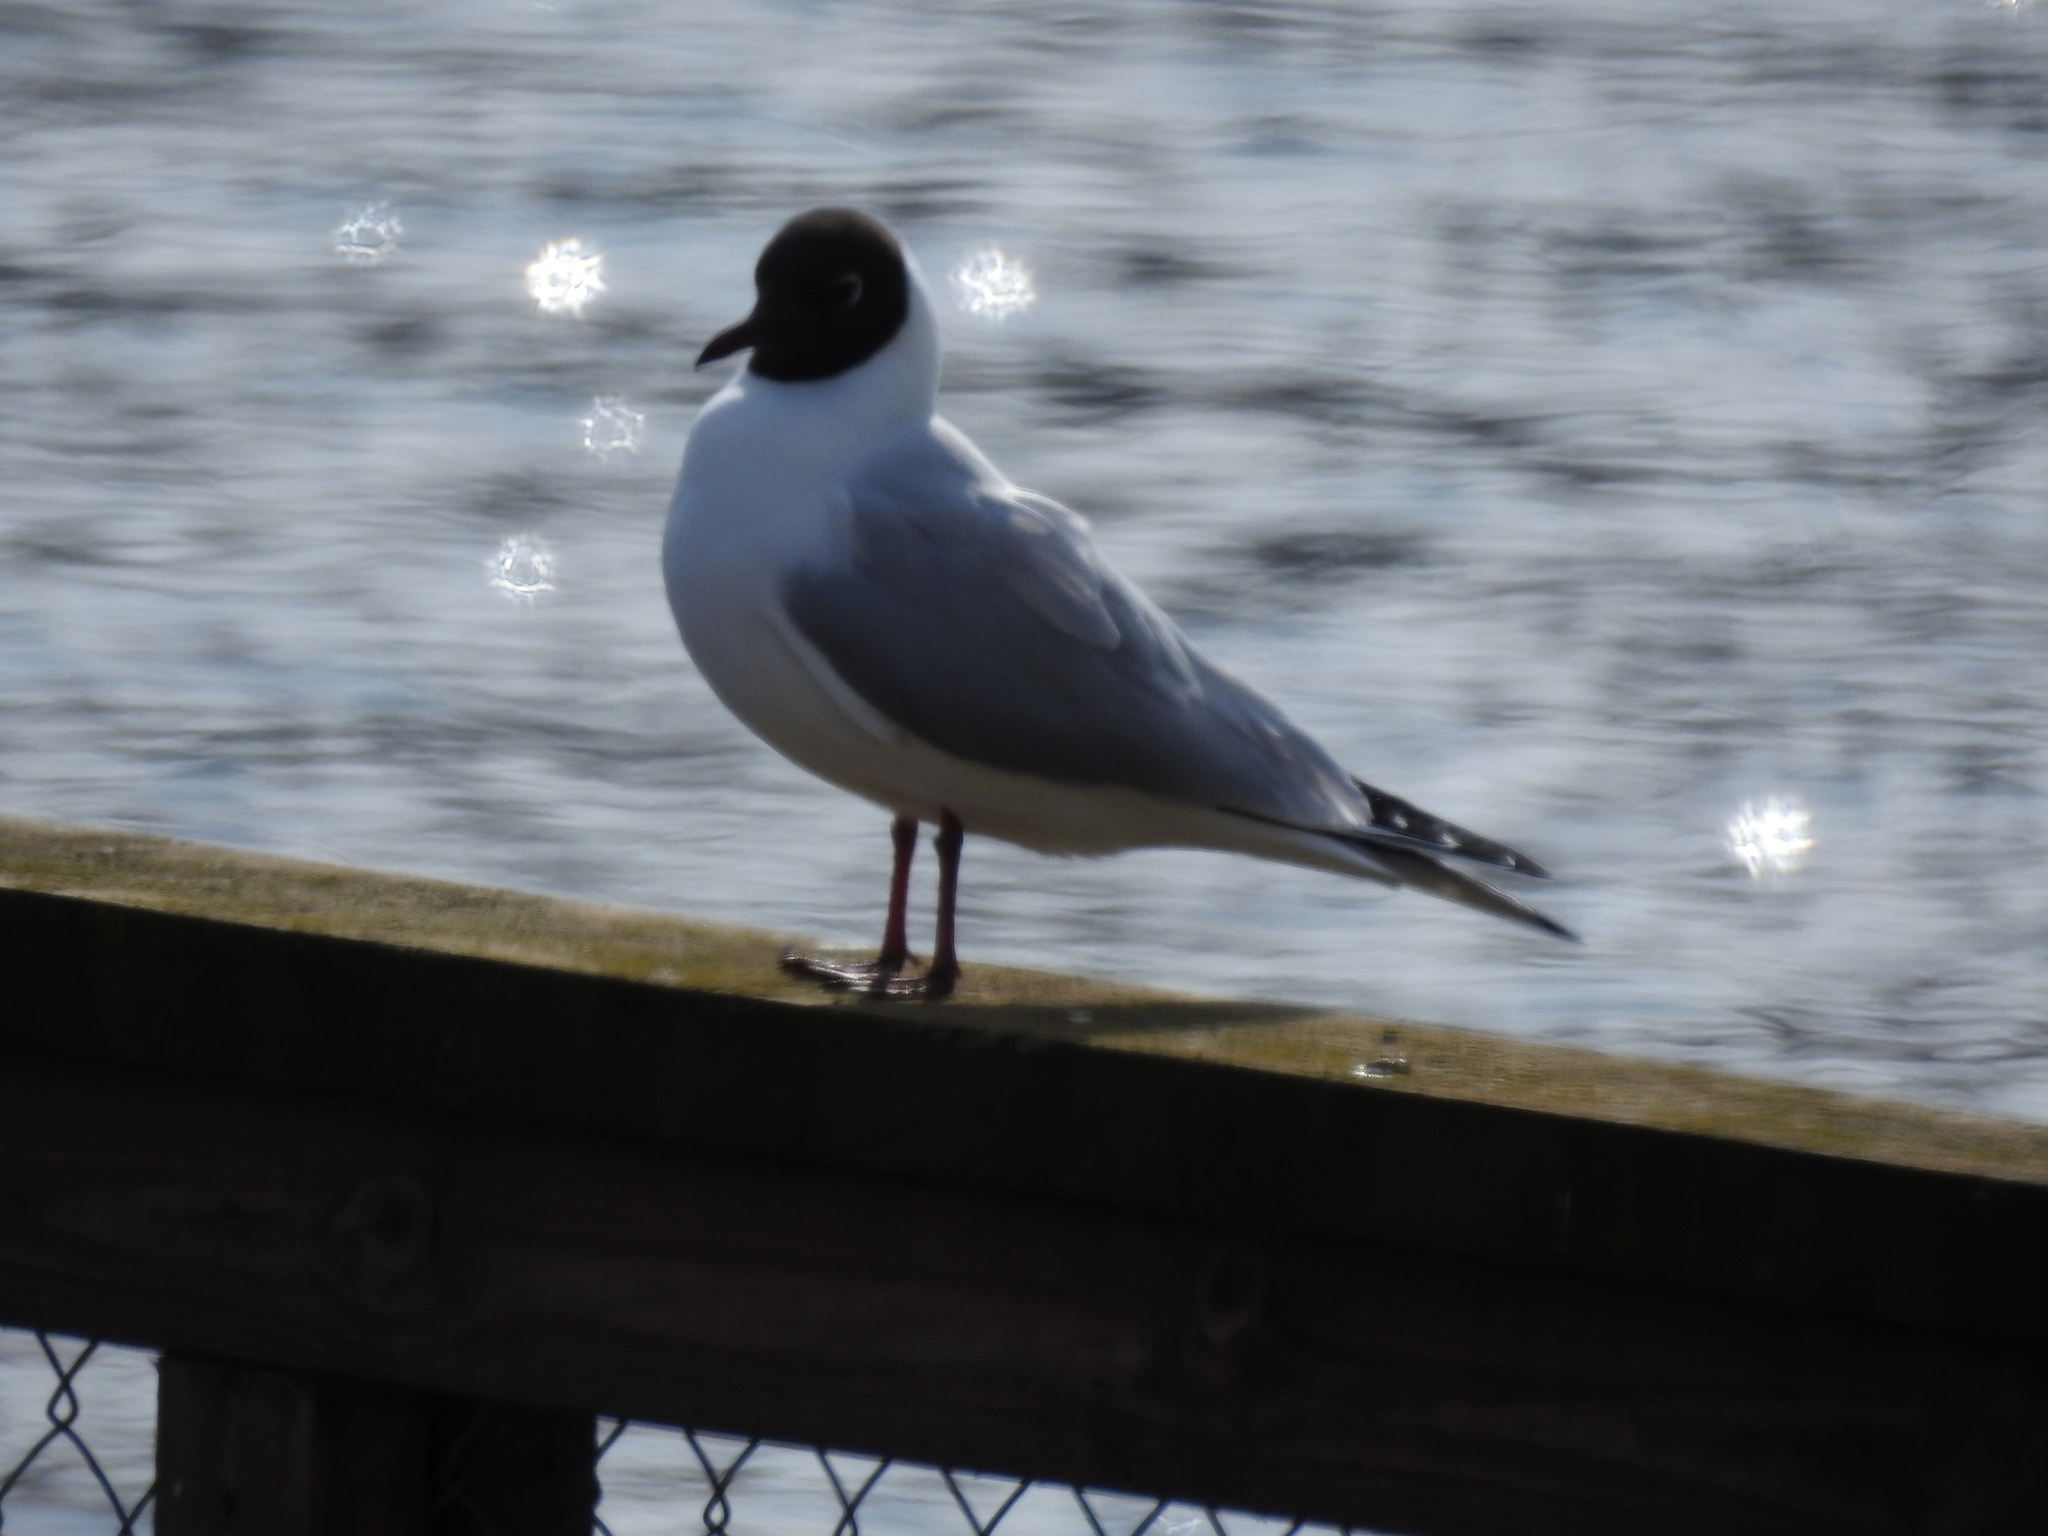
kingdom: Animalia
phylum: Chordata
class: Aves
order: Charadriiformes
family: Laridae
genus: Chroicocephalus
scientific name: Chroicocephalus ridibundus
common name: Black-headed gull
